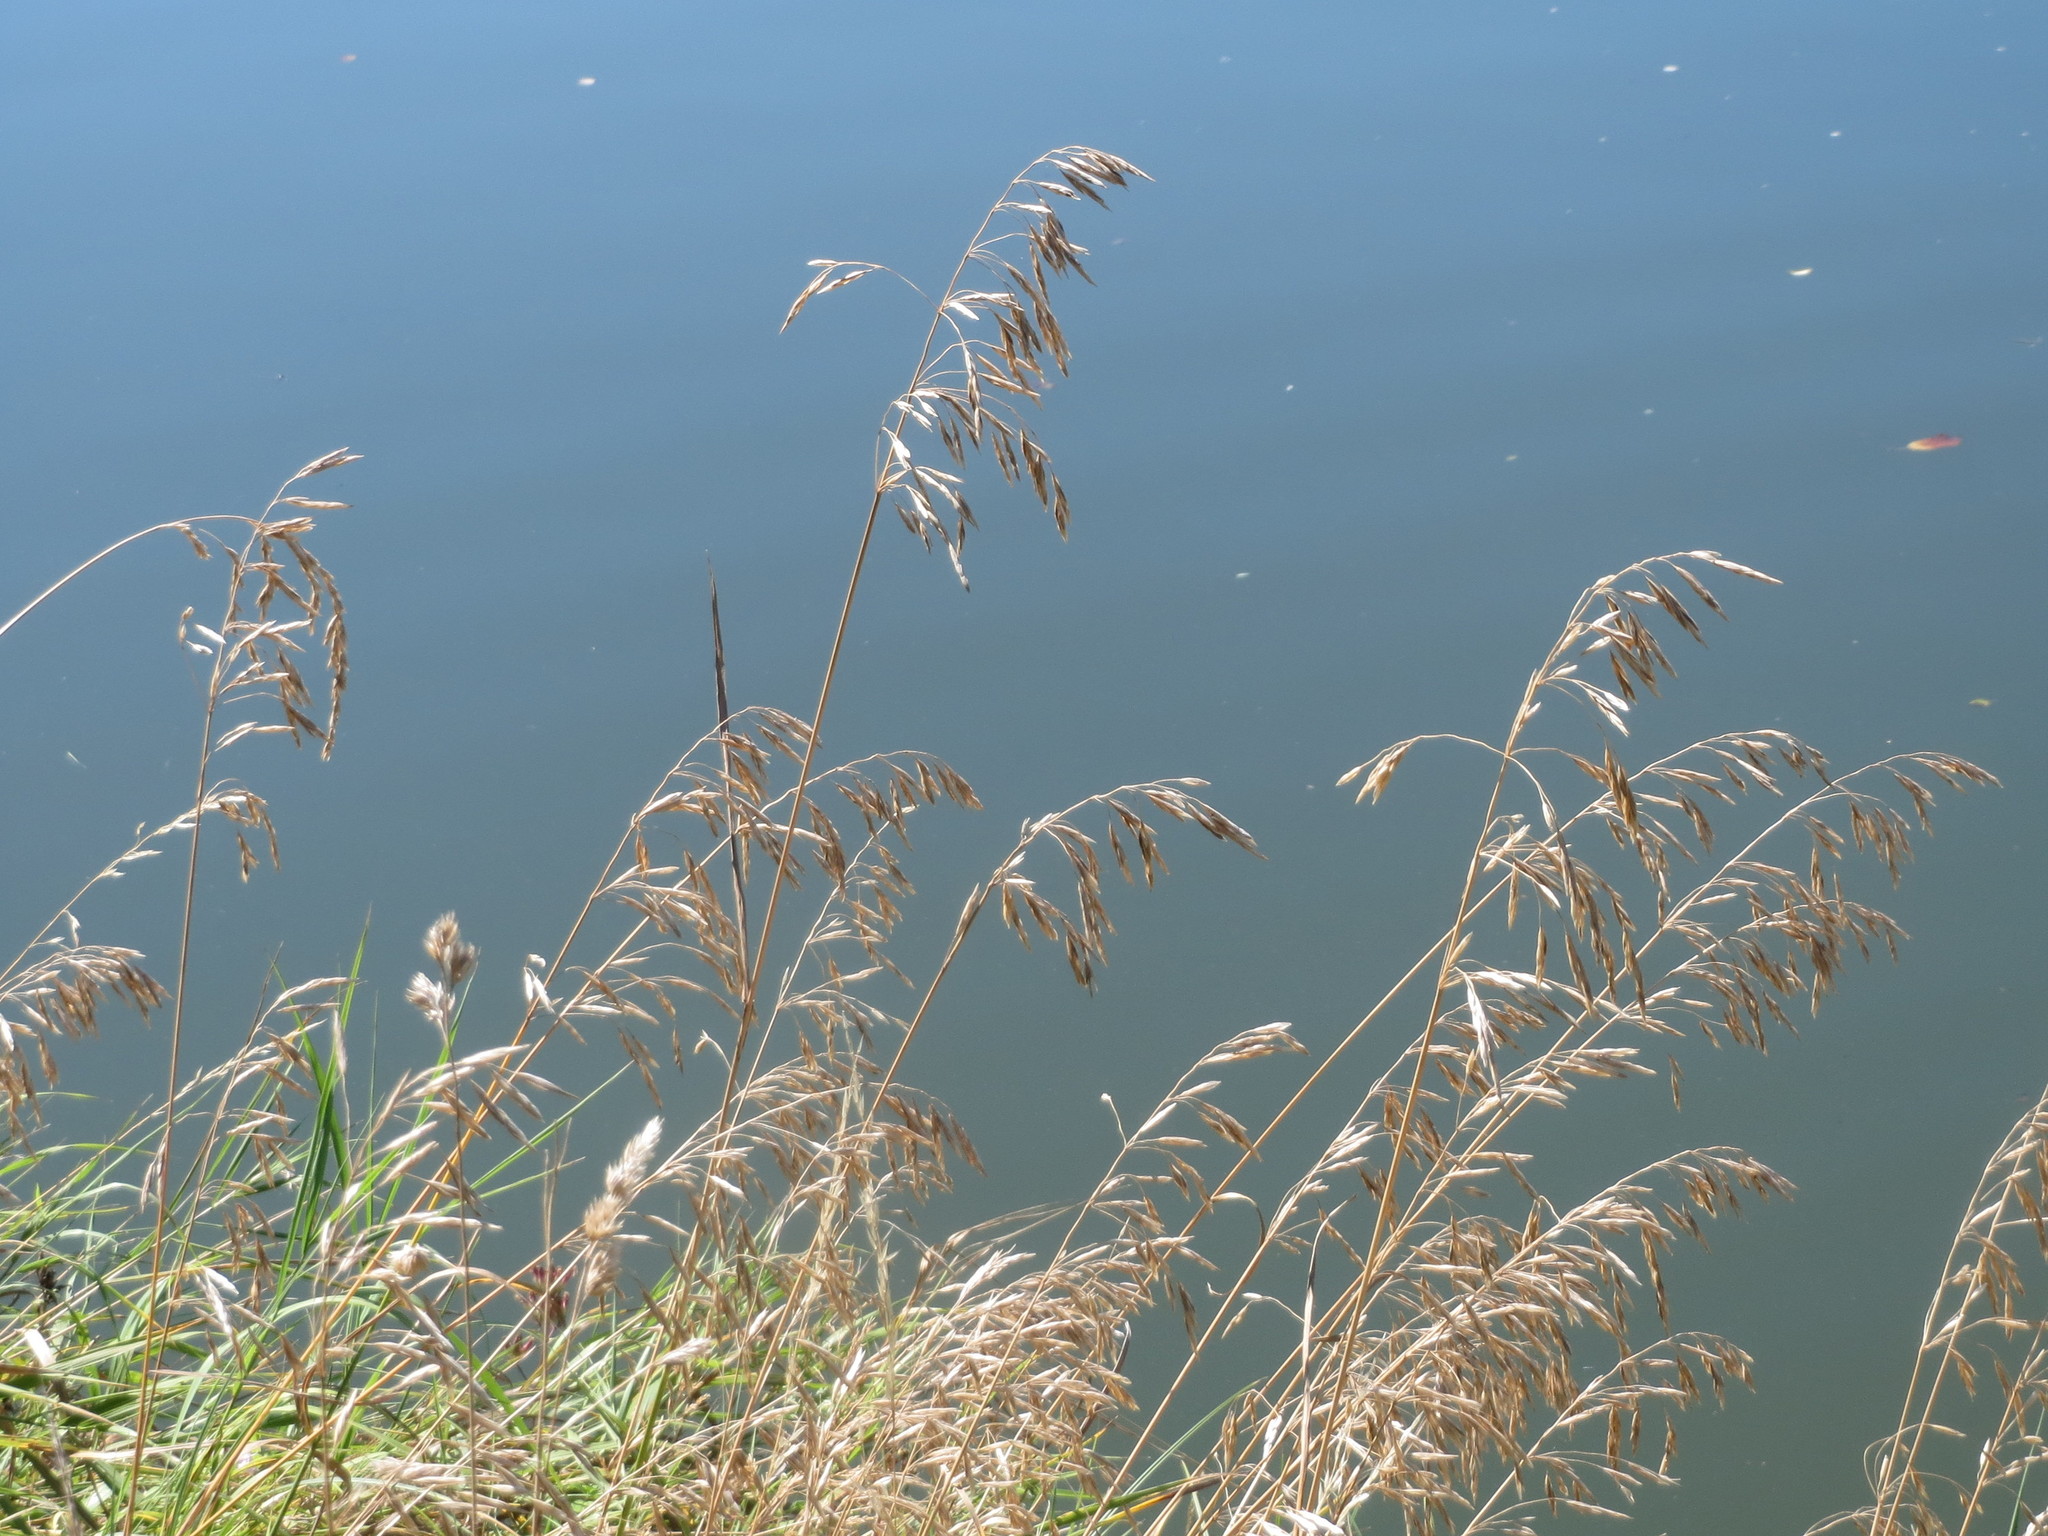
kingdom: Plantae
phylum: Tracheophyta
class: Liliopsida
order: Poales
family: Poaceae
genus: Bromus
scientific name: Bromus inermis
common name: Smooth brome
